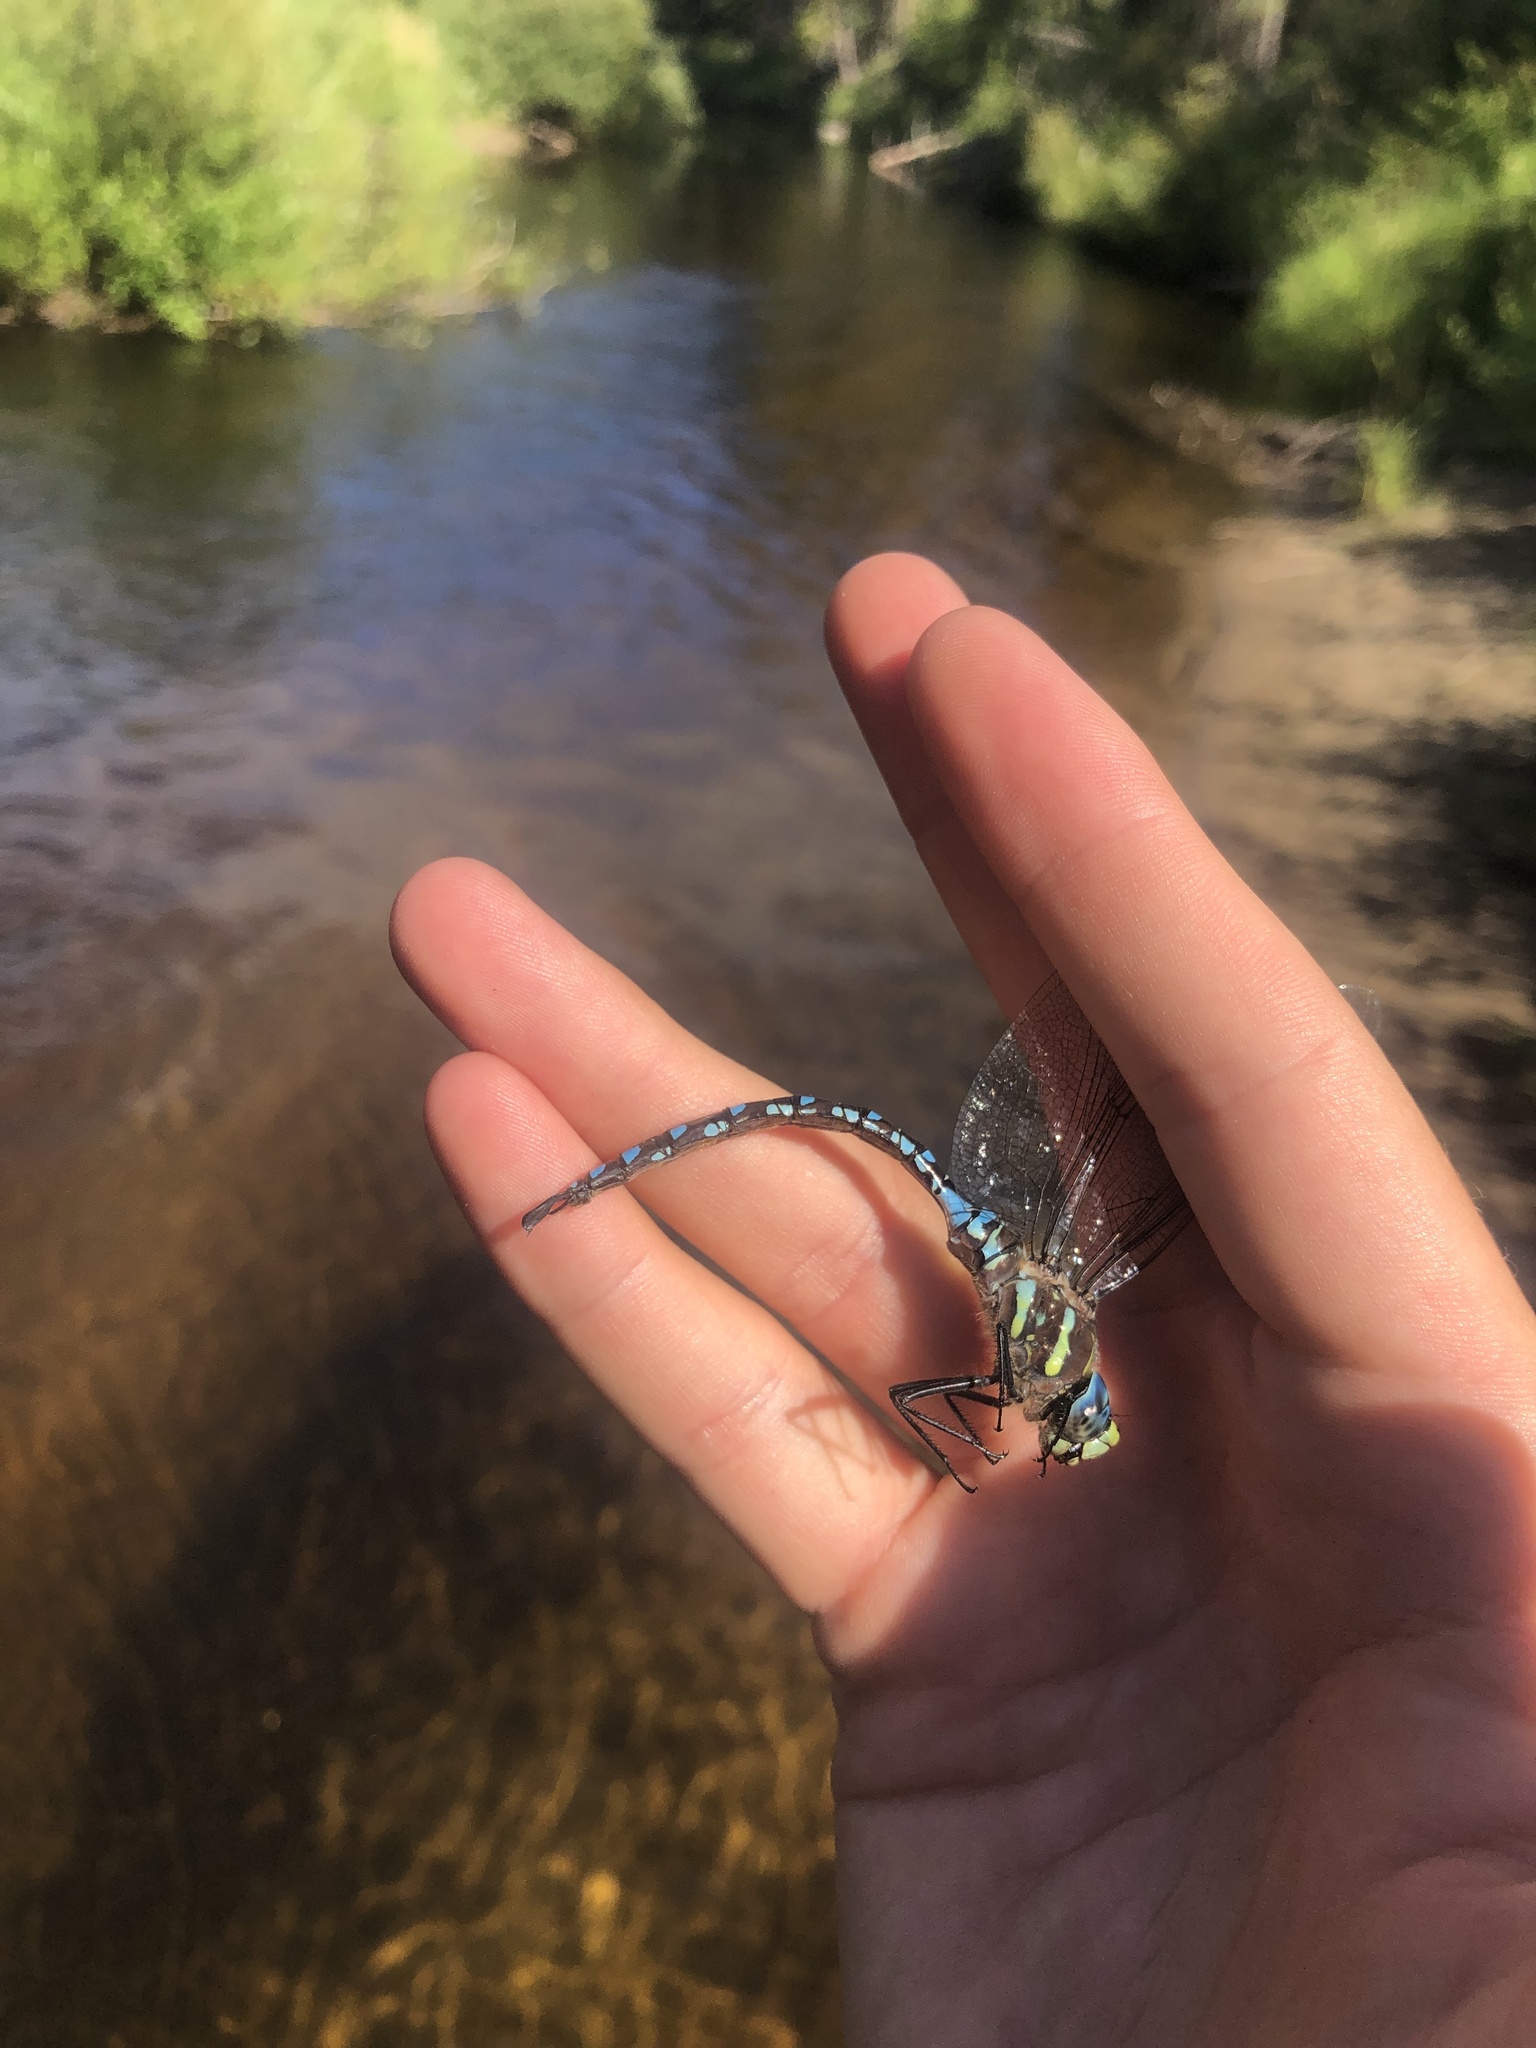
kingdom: Animalia
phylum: Arthropoda
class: Insecta
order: Odonata
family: Aeshnidae
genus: Aeshna
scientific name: Aeshna palmata
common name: Paddle-tailed darner
